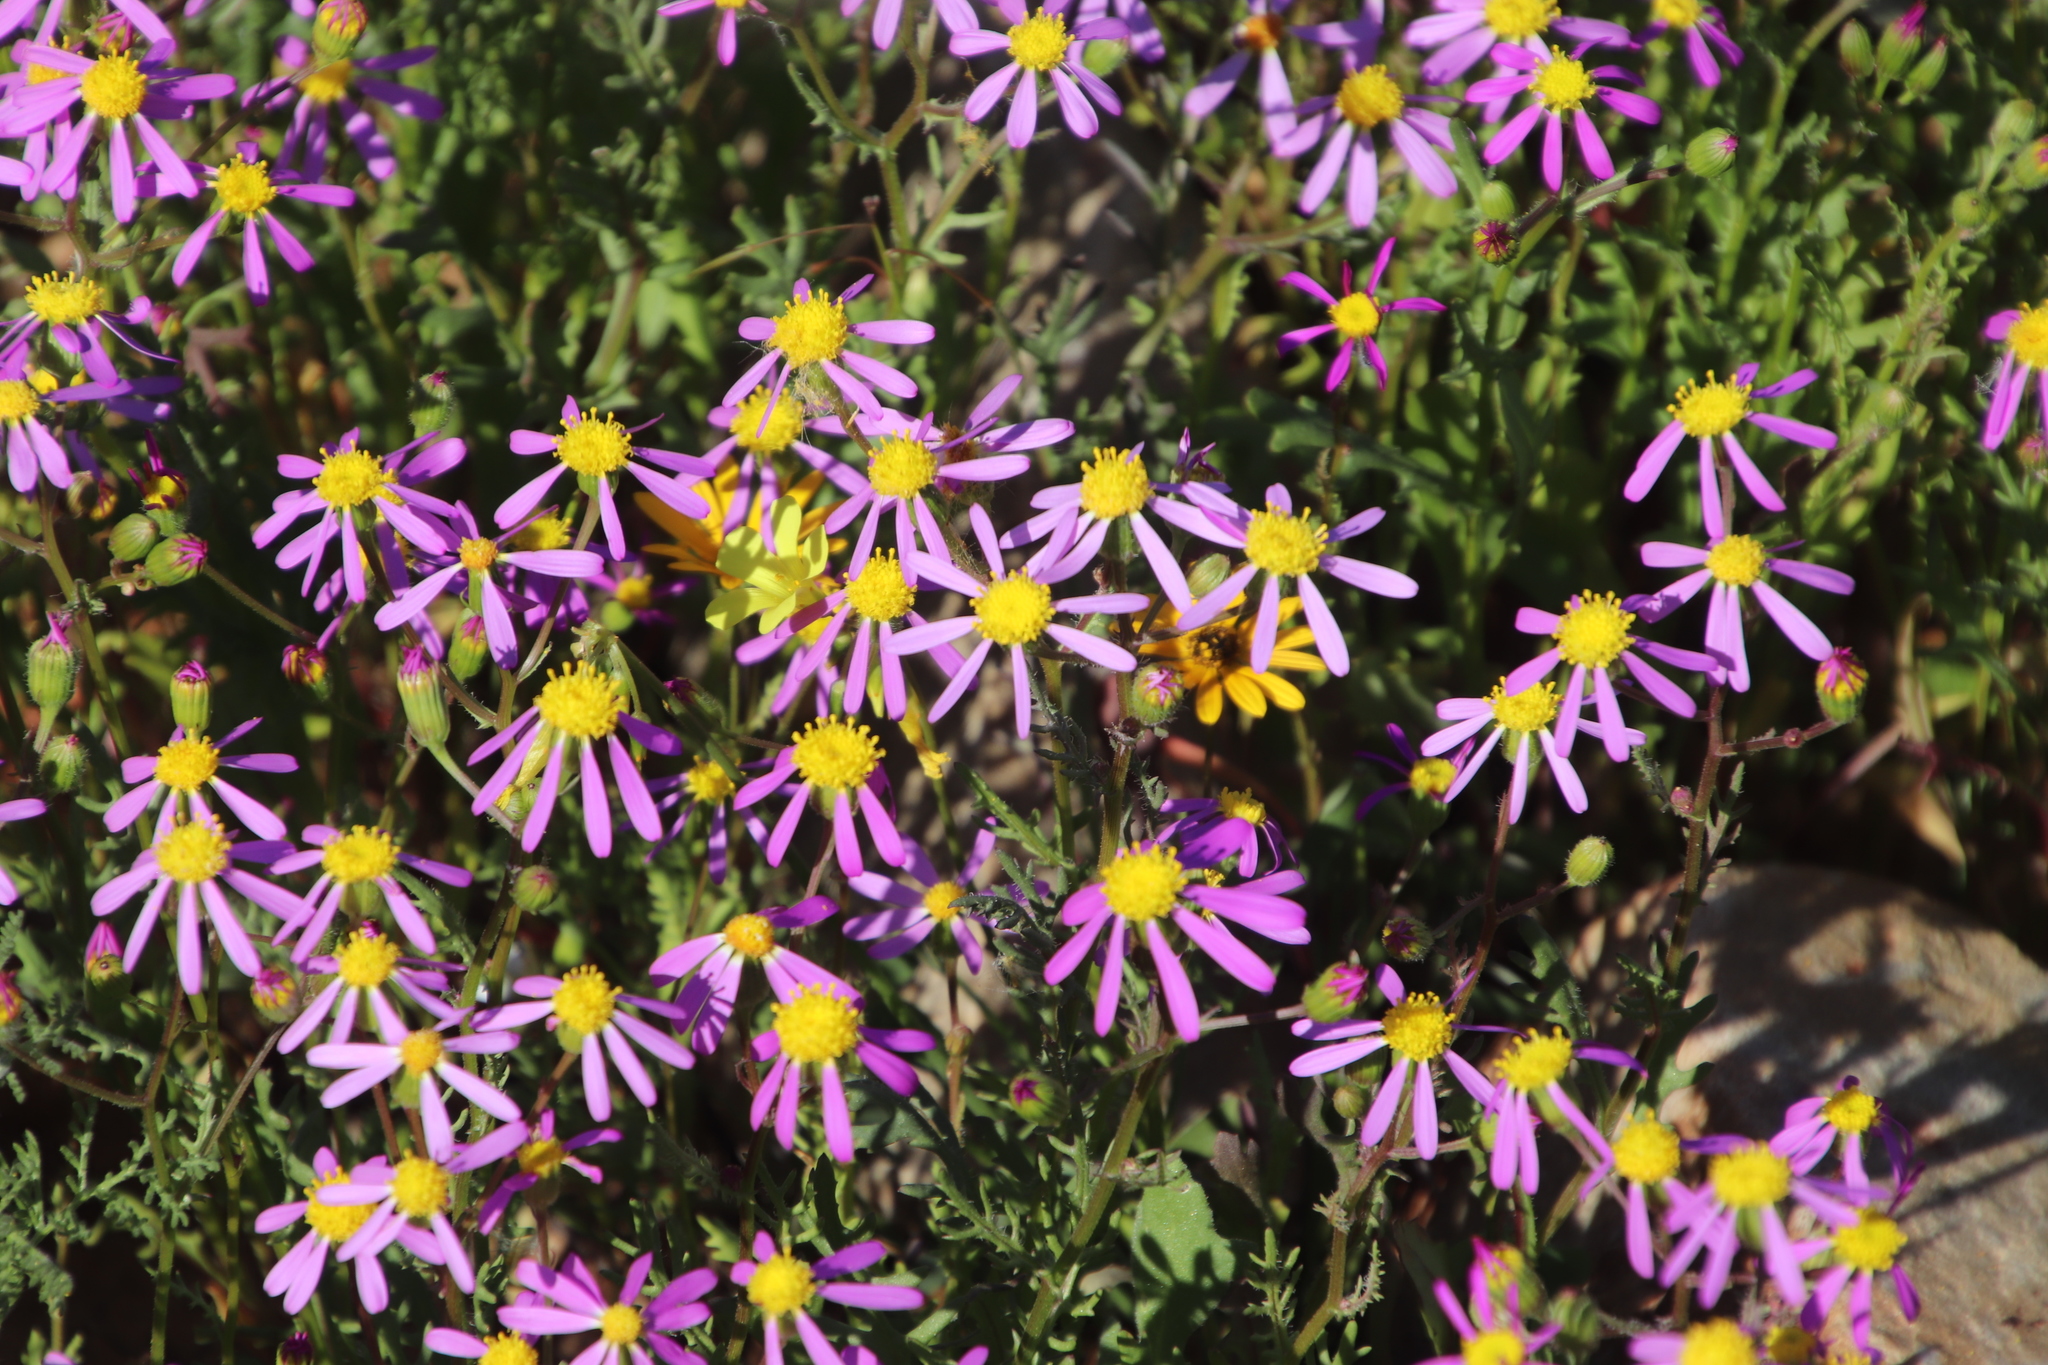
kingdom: Plantae
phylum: Tracheophyta
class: Magnoliopsida
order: Asterales
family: Asteraceae
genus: Senecio
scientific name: Senecio arenarius
